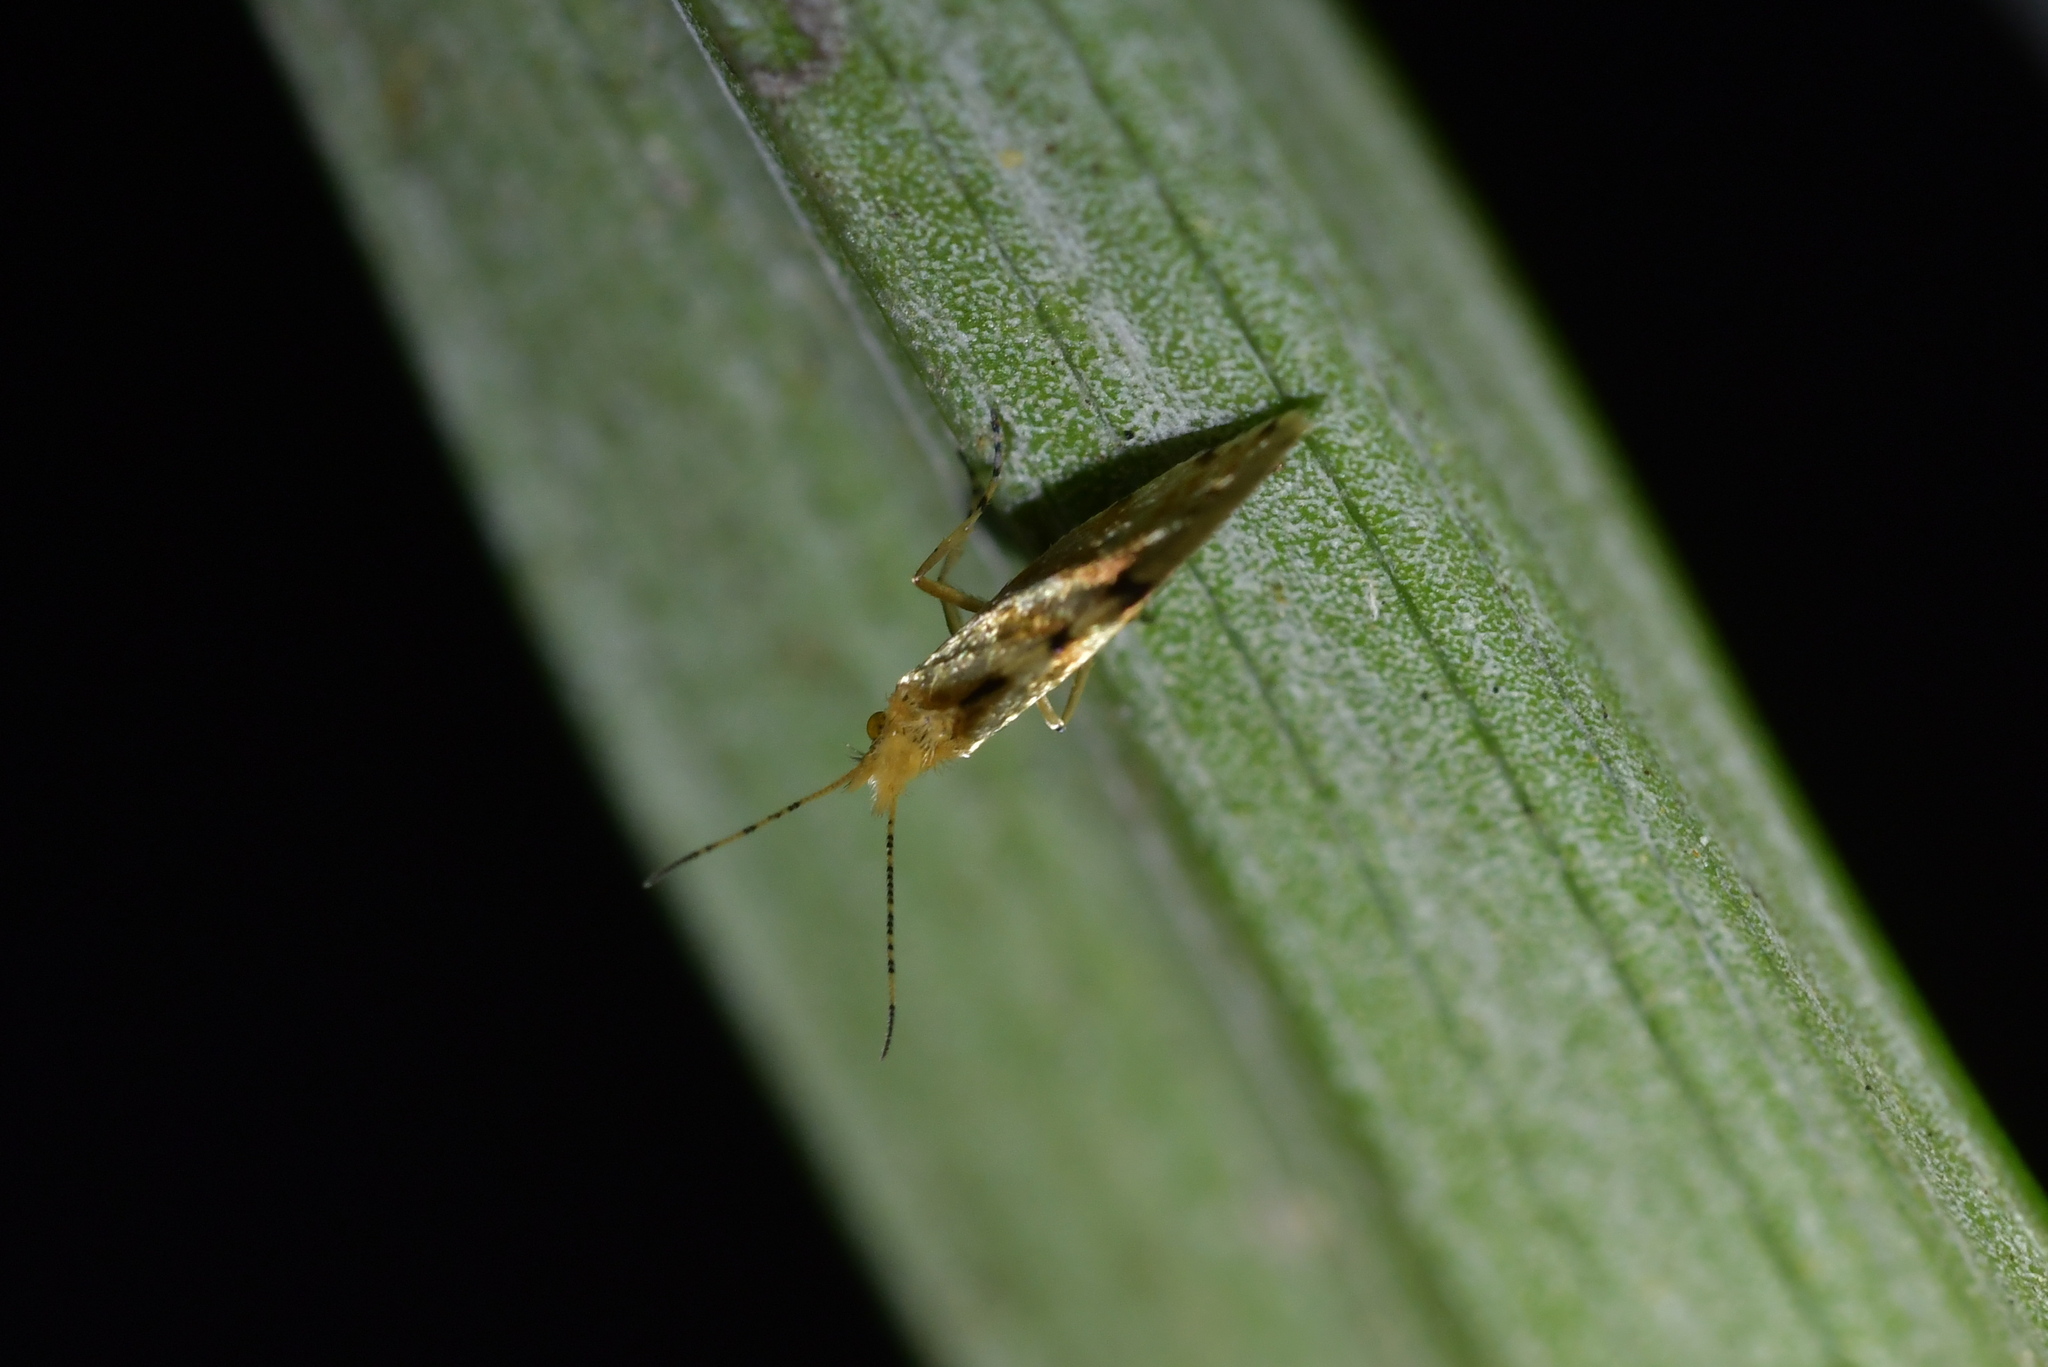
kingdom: Animalia
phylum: Arthropoda
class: Insecta
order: Lepidoptera
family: Micropterigidae
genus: Sabatinca
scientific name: Sabatinca chalcophanes
